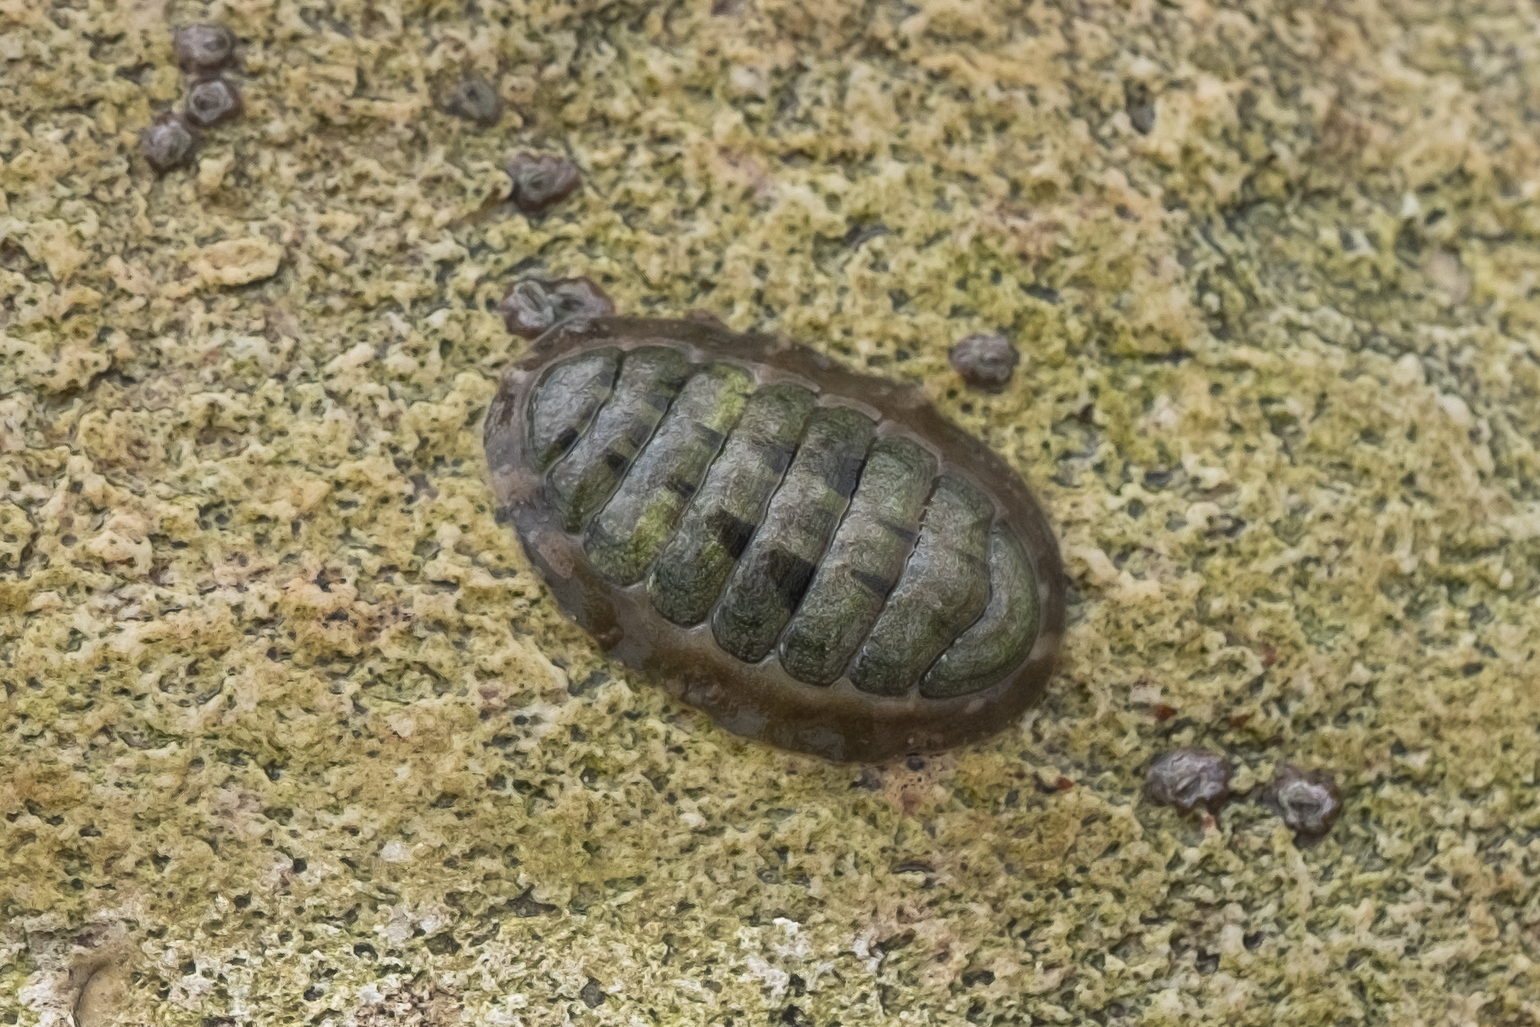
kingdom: Animalia
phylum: Mollusca
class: Polyplacophora
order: Chitonida
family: Tonicellidae
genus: Cyanoplax
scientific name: Cyanoplax hartwegii
